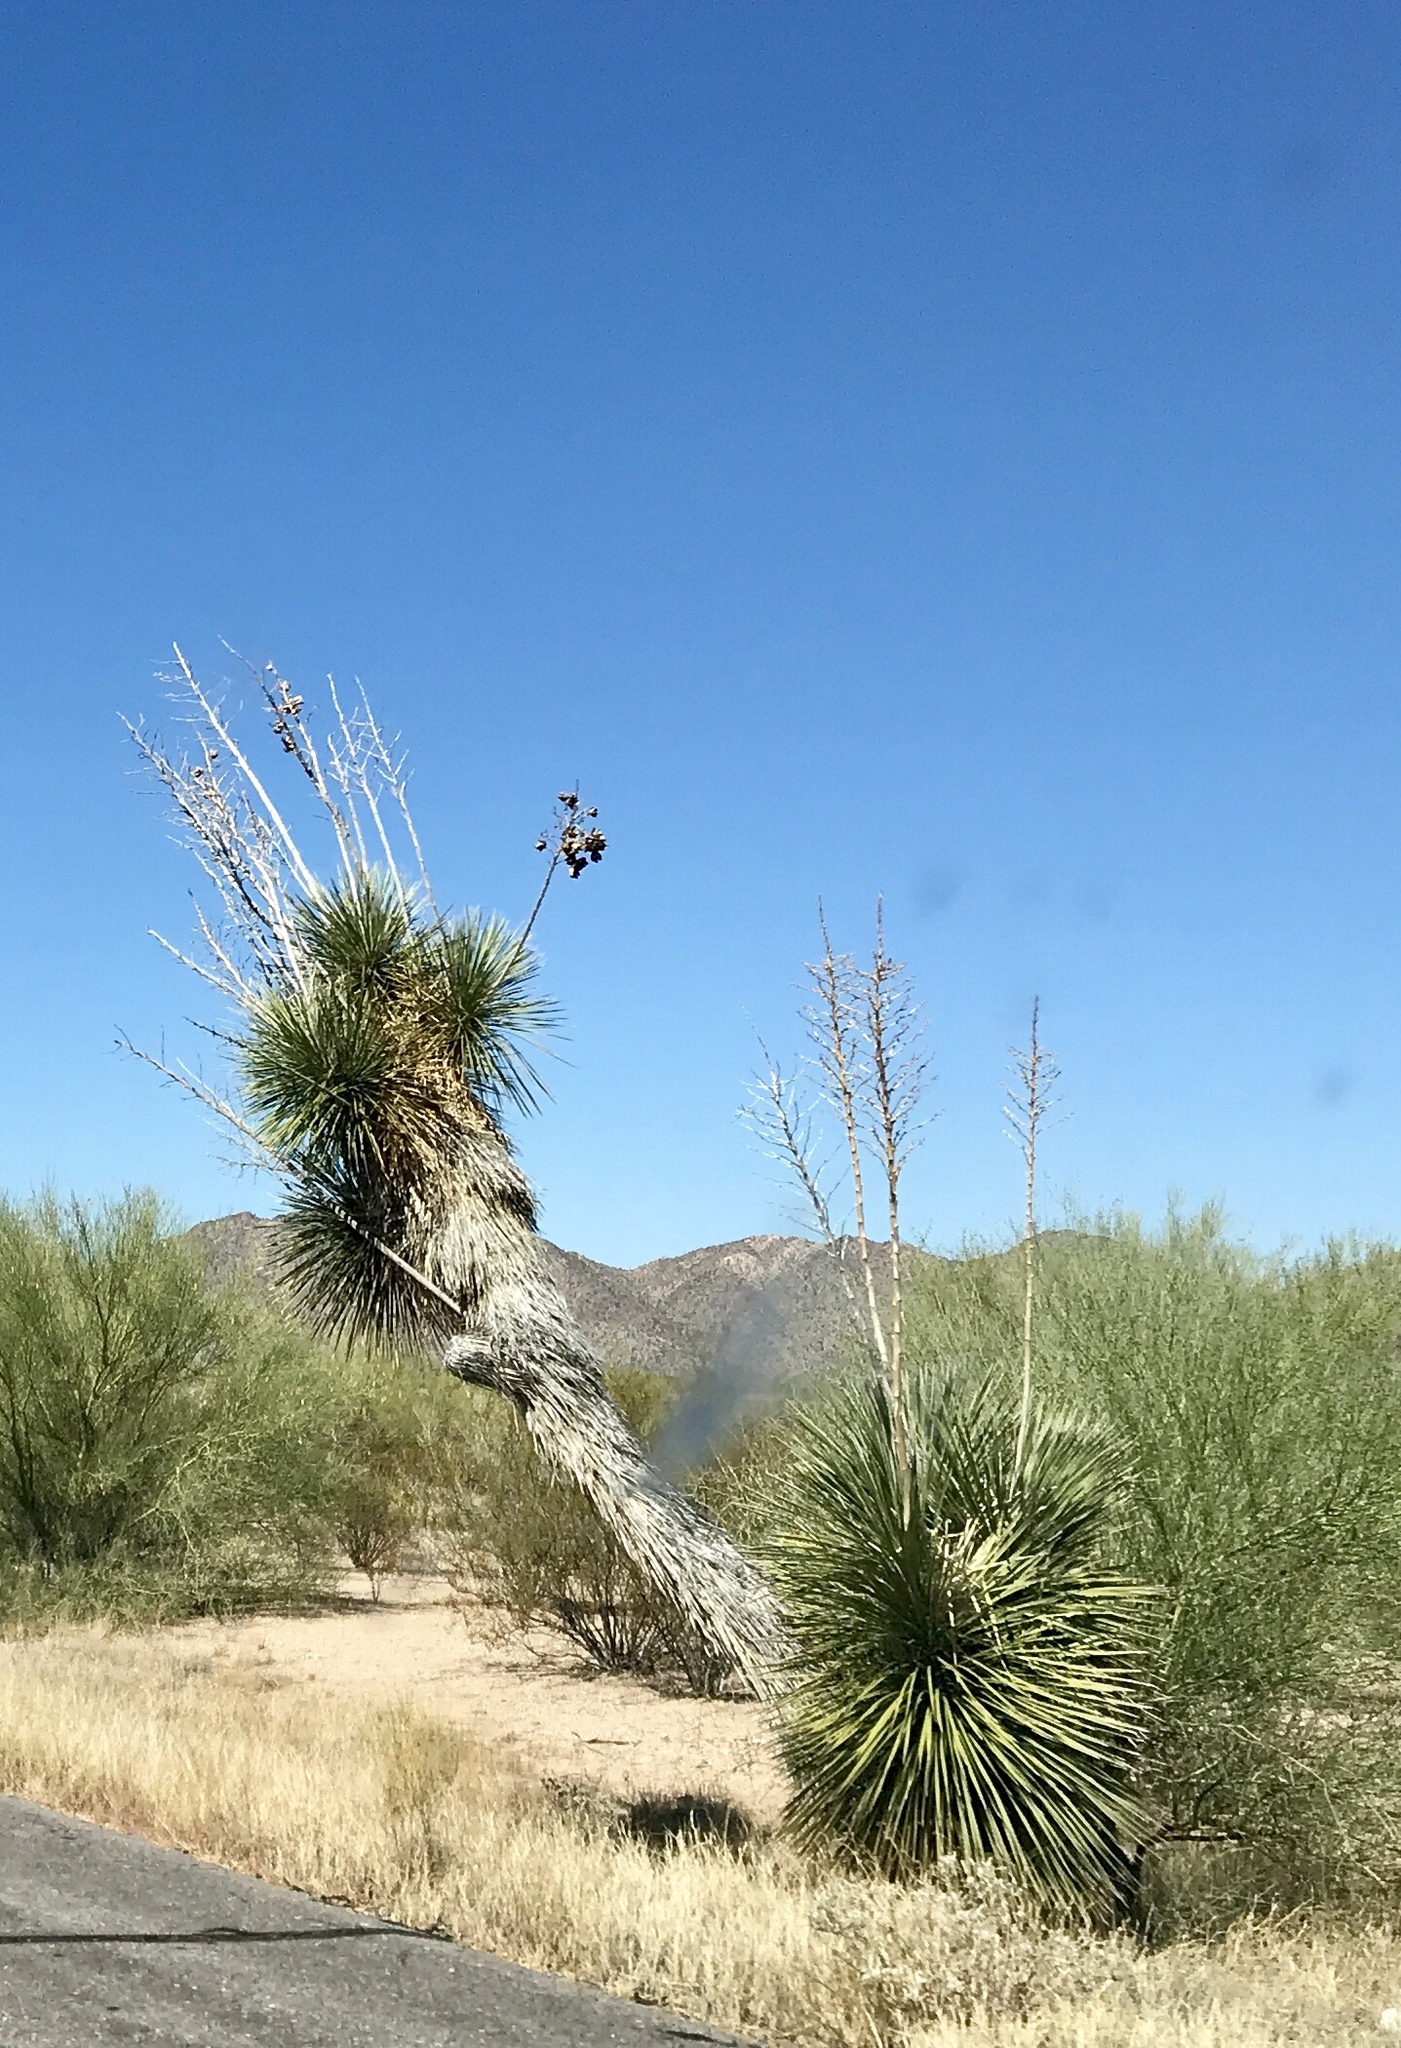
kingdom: Plantae
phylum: Tracheophyta
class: Liliopsida
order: Asparagales
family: Asparagaceae
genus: Yucca
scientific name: Yucca elata
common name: Palmella
